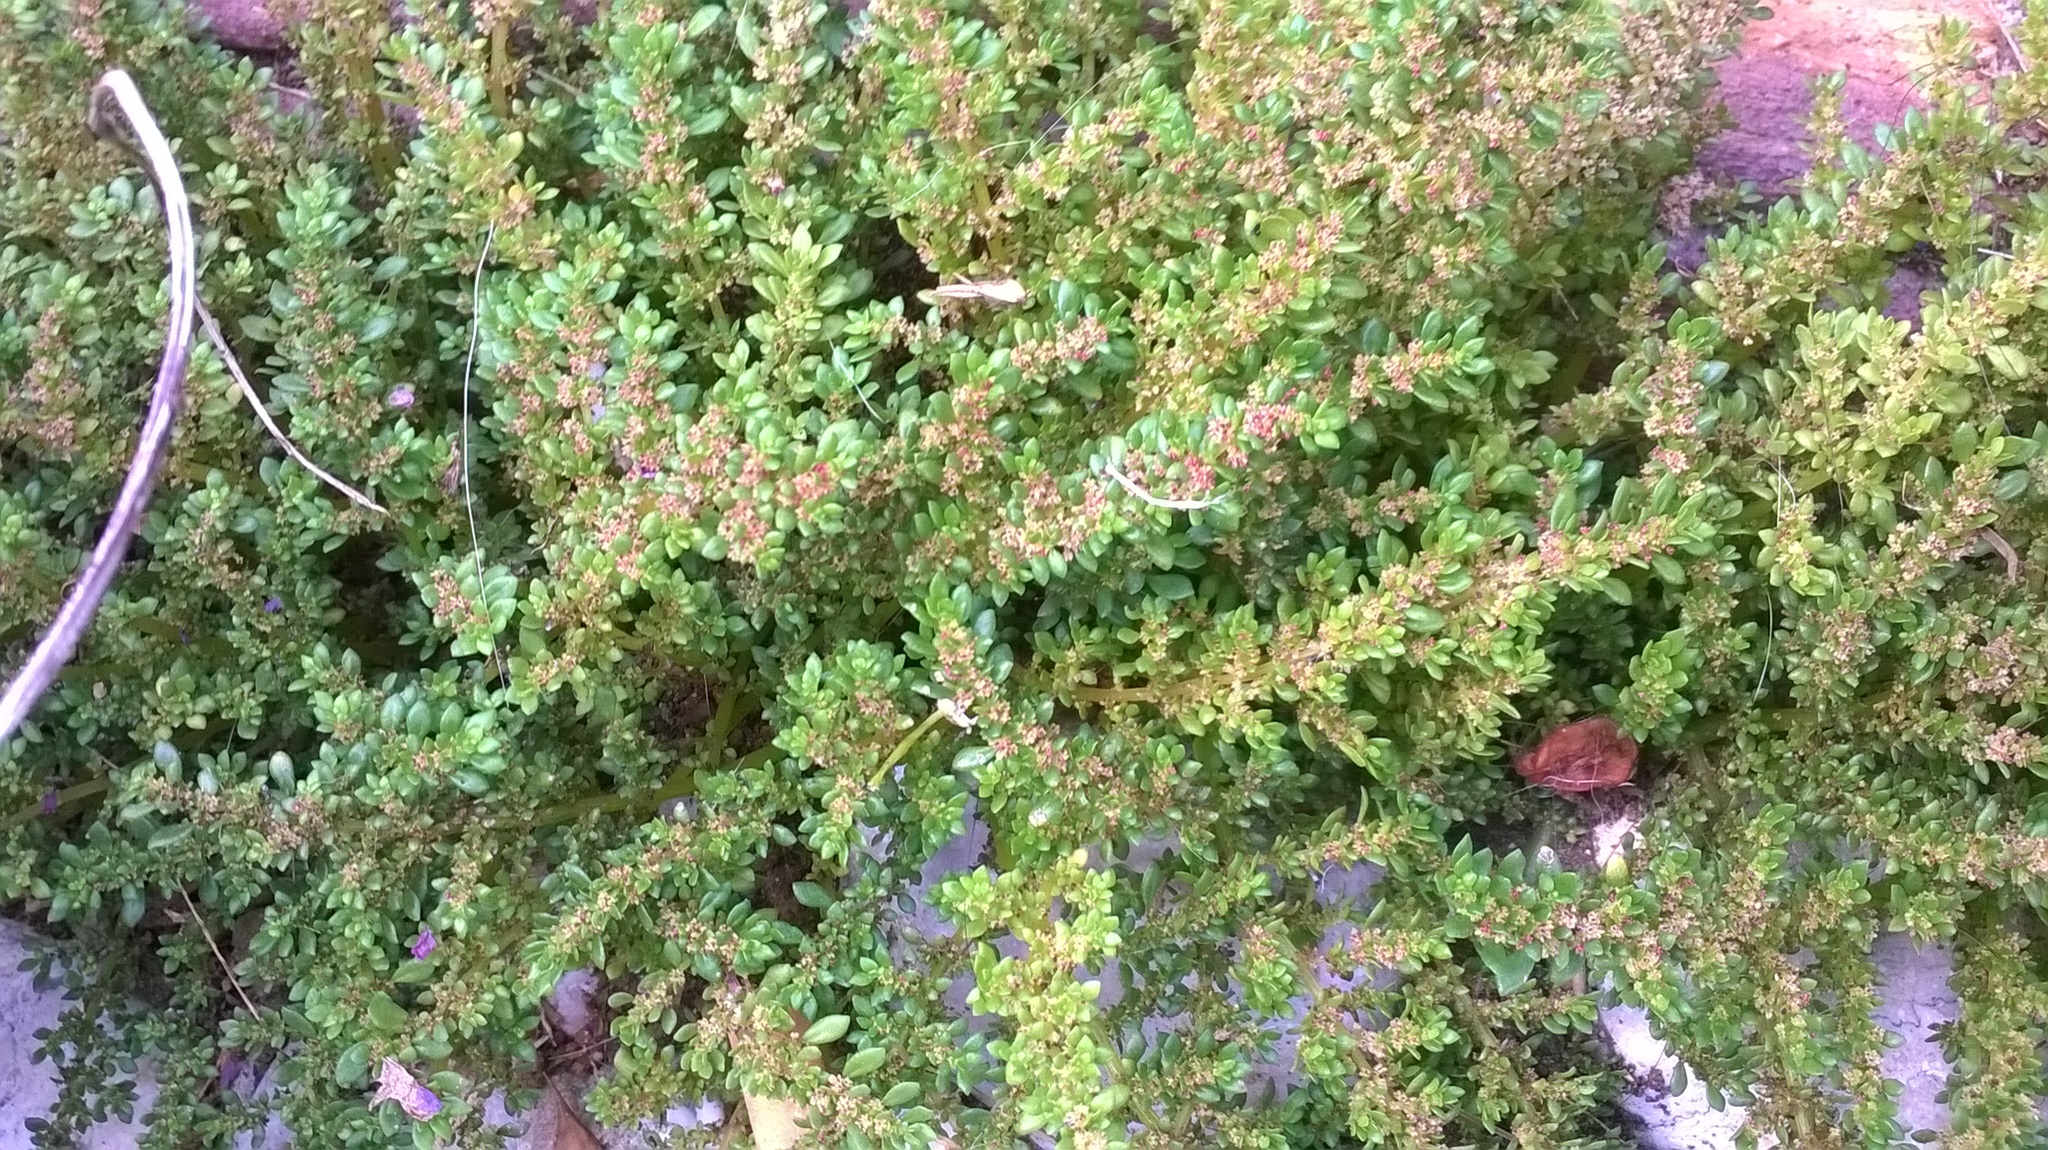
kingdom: Plantae
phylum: Tracheophyta
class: Magnoliopsida
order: Rosales
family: Urticaceae
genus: Pilea
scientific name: Pilea microphylla
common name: Artillery-plant
